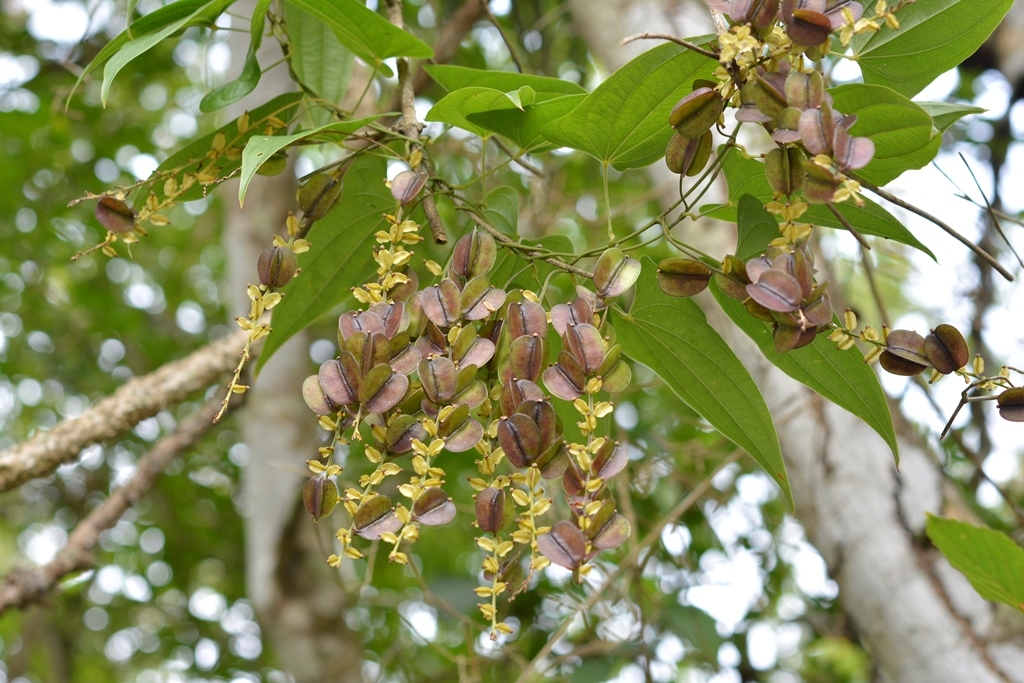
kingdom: Plantae
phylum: Tracheophyta
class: Liliopsida
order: Dioscoreales
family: Dioscoreaceae
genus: Dioscorea
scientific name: Dioscorea spiculiflora
